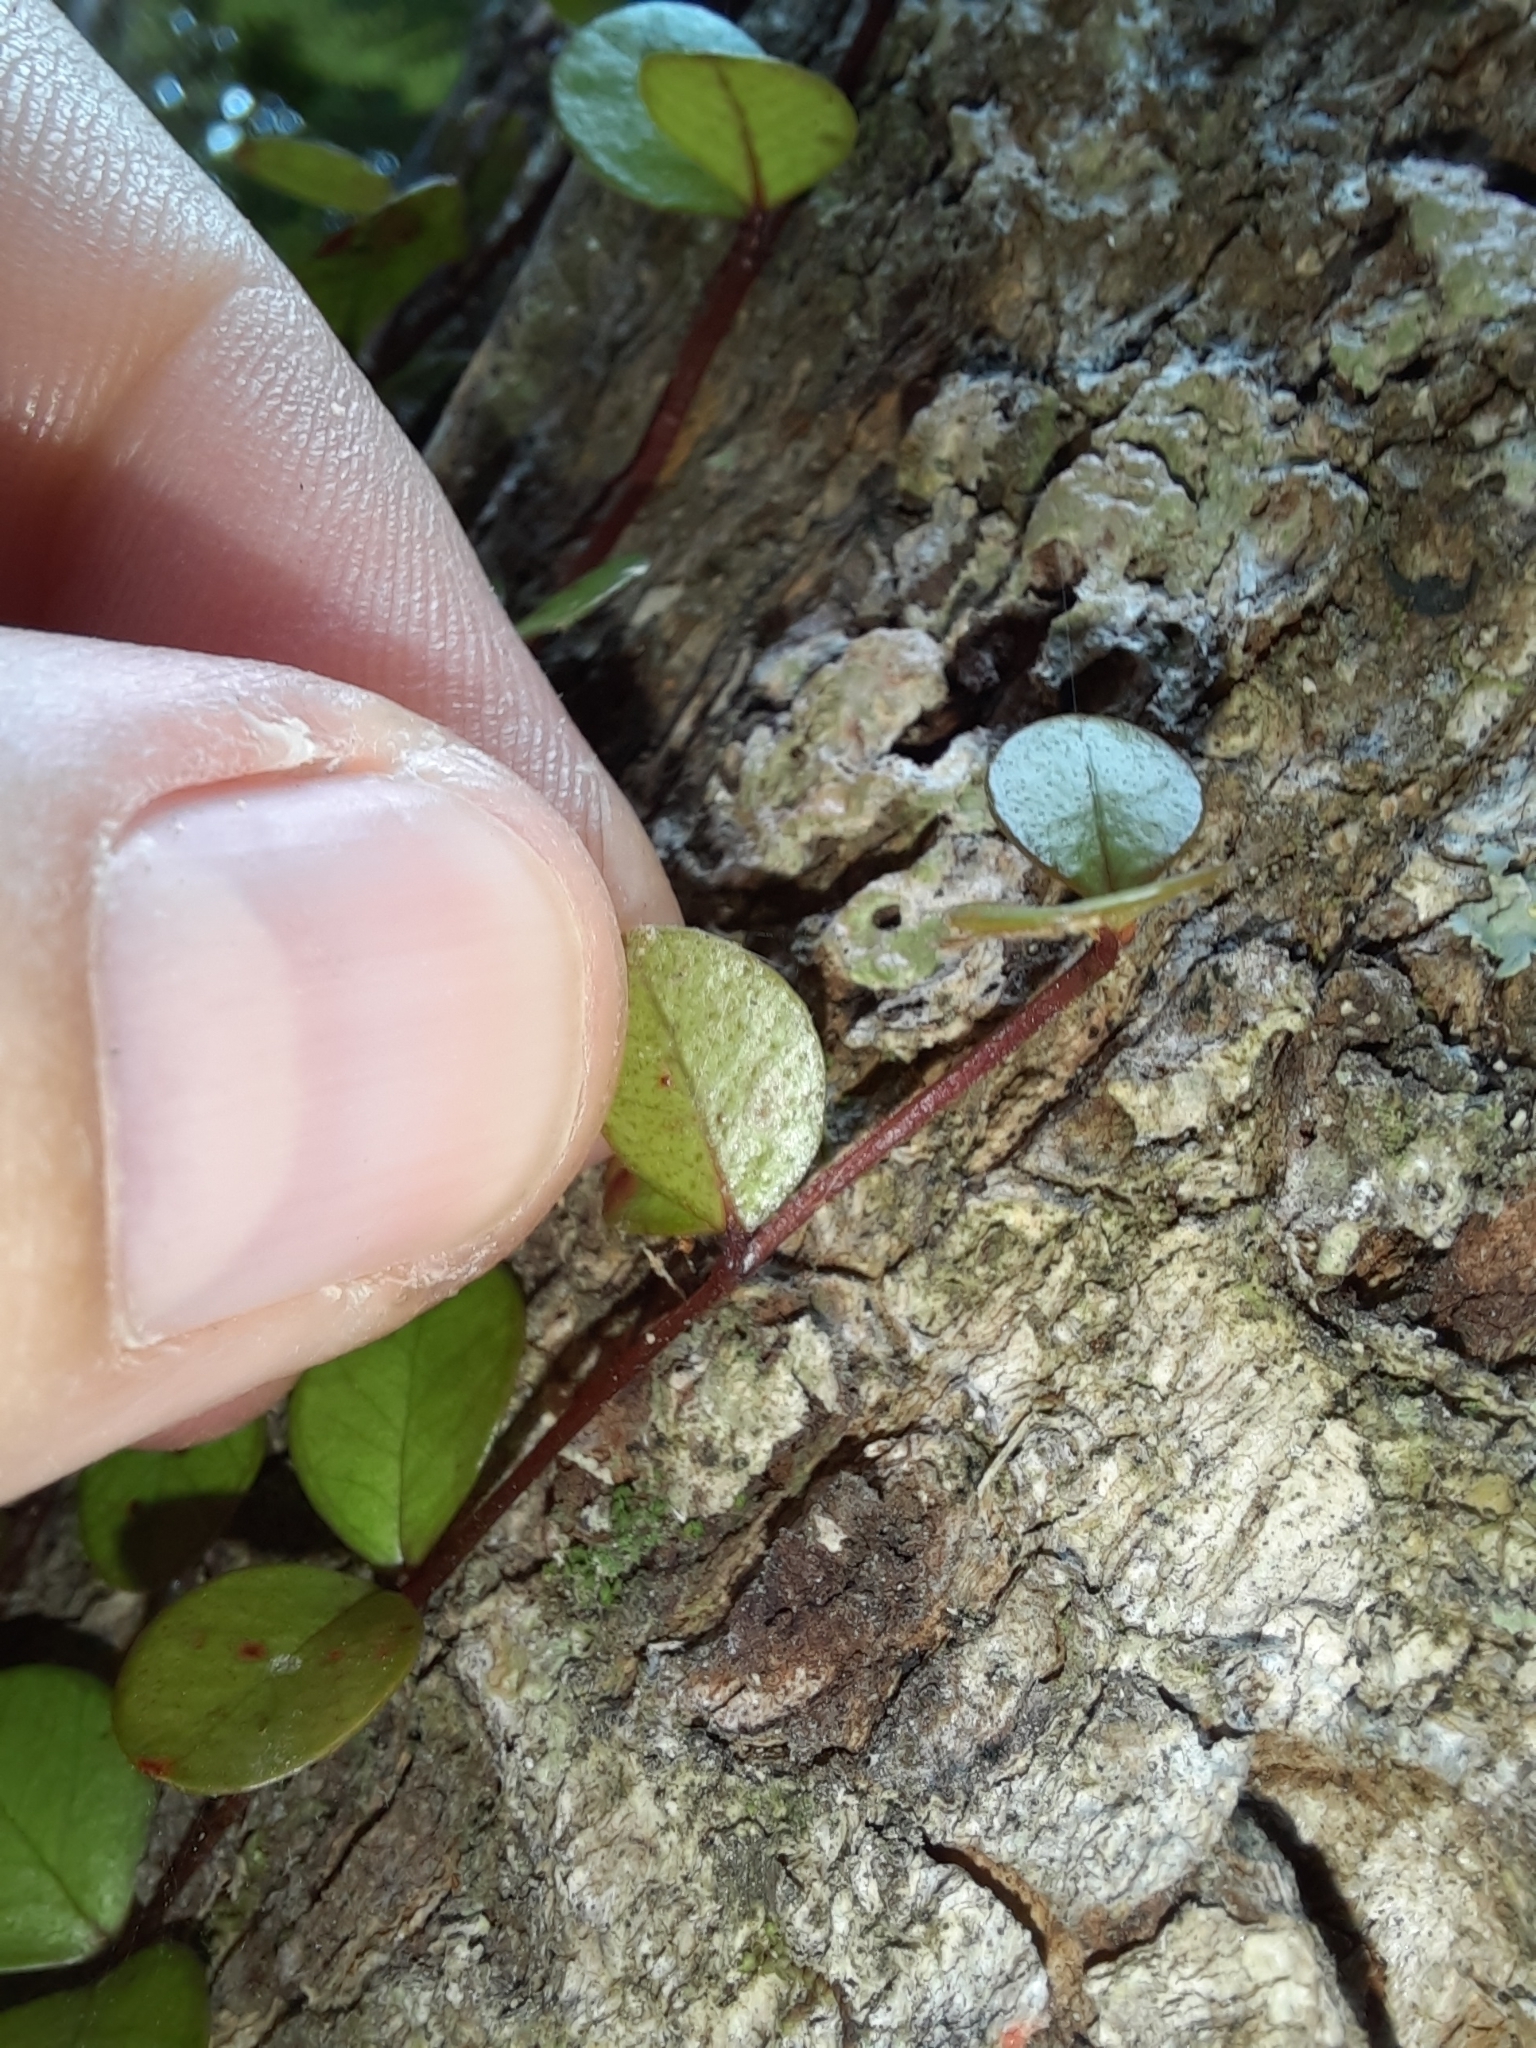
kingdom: Plantae
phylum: Tracheophyta
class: Magnoliopsida
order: Myrtales
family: Myrtaceae
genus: Metrosideros
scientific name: Metrosideros perforata
